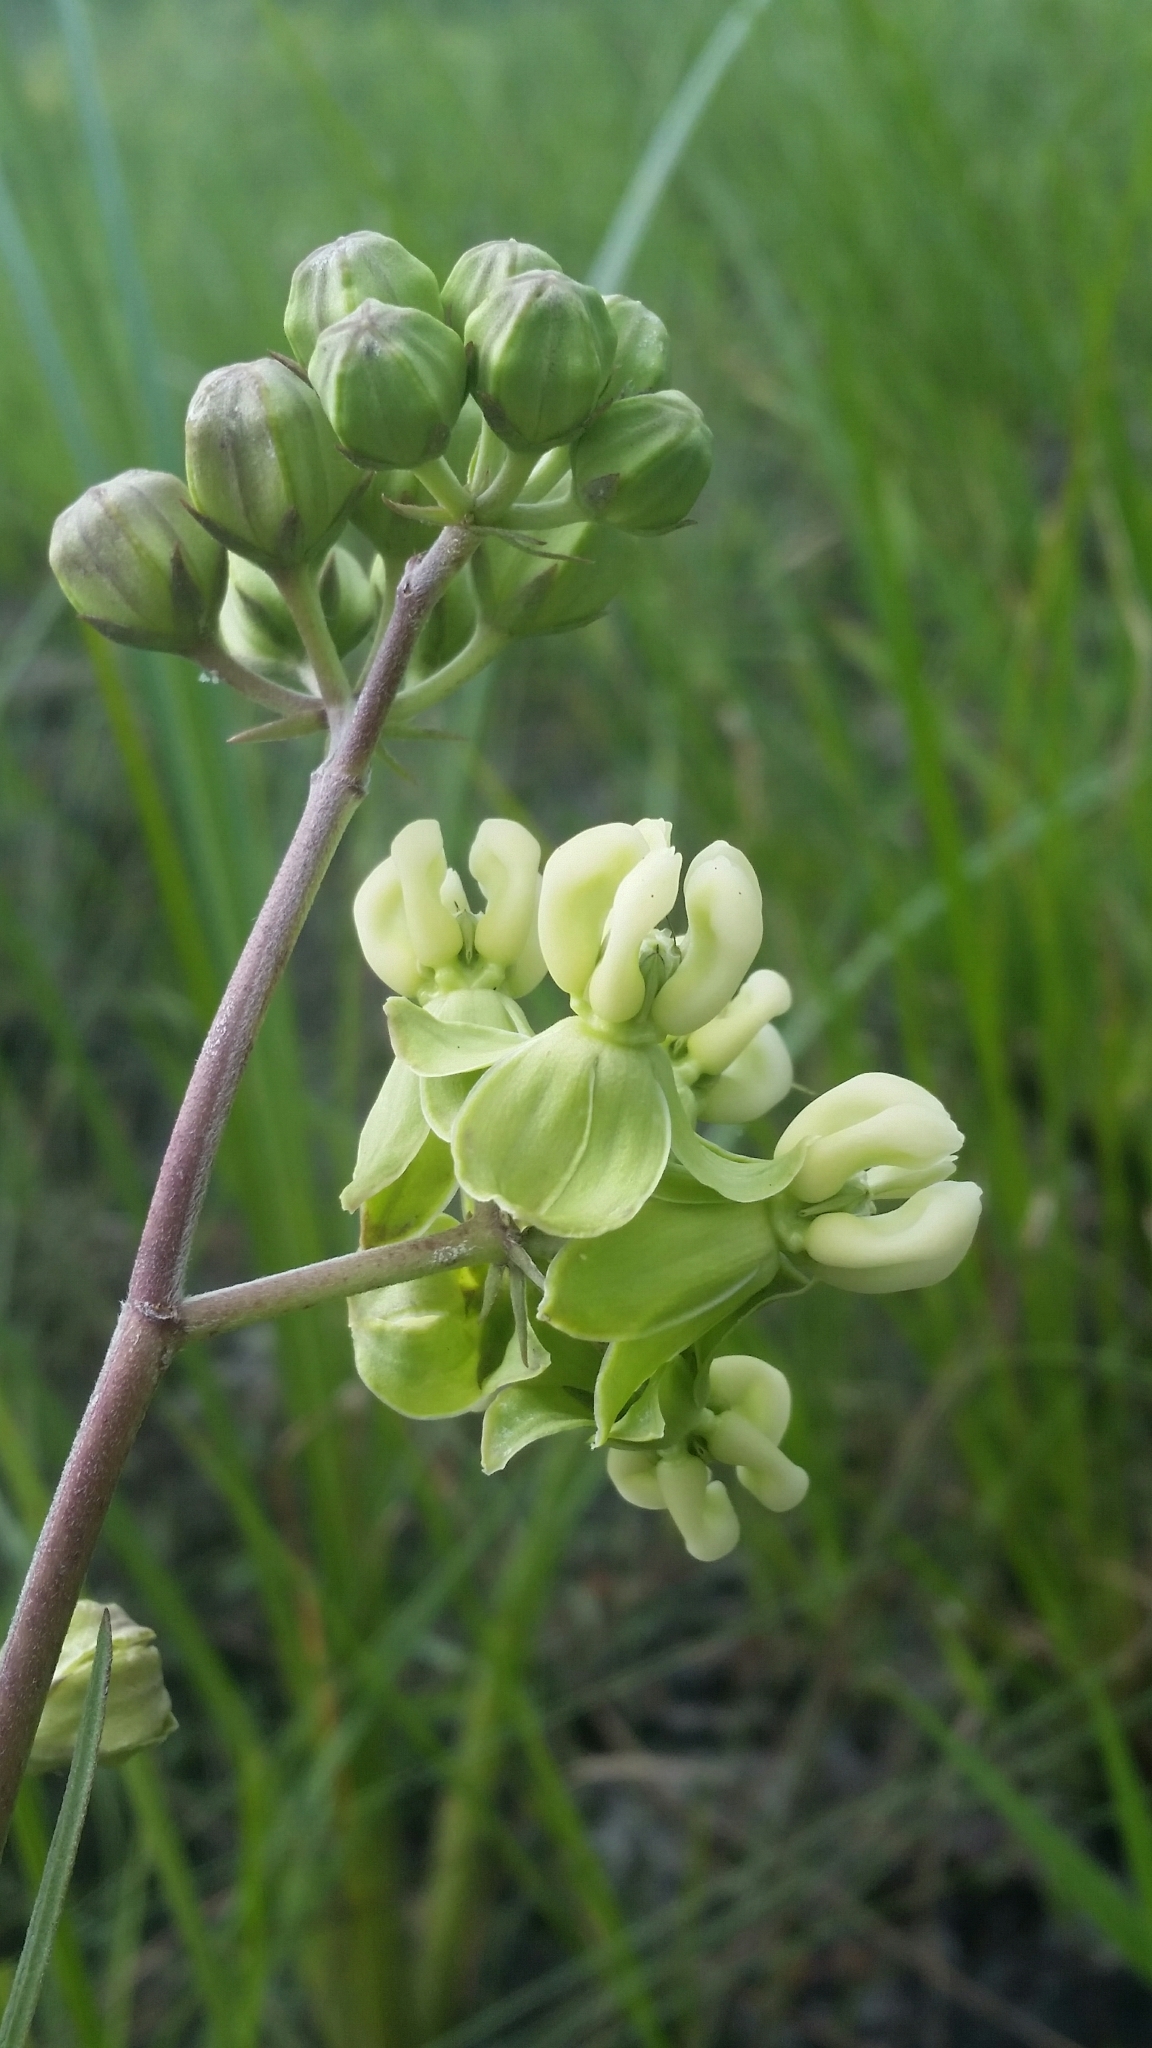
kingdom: Plantae
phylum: Tracheophyta
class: Magnoliopsida
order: Gentianales
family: Apocynaceae
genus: Asclepias
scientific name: Asclepias connivens
